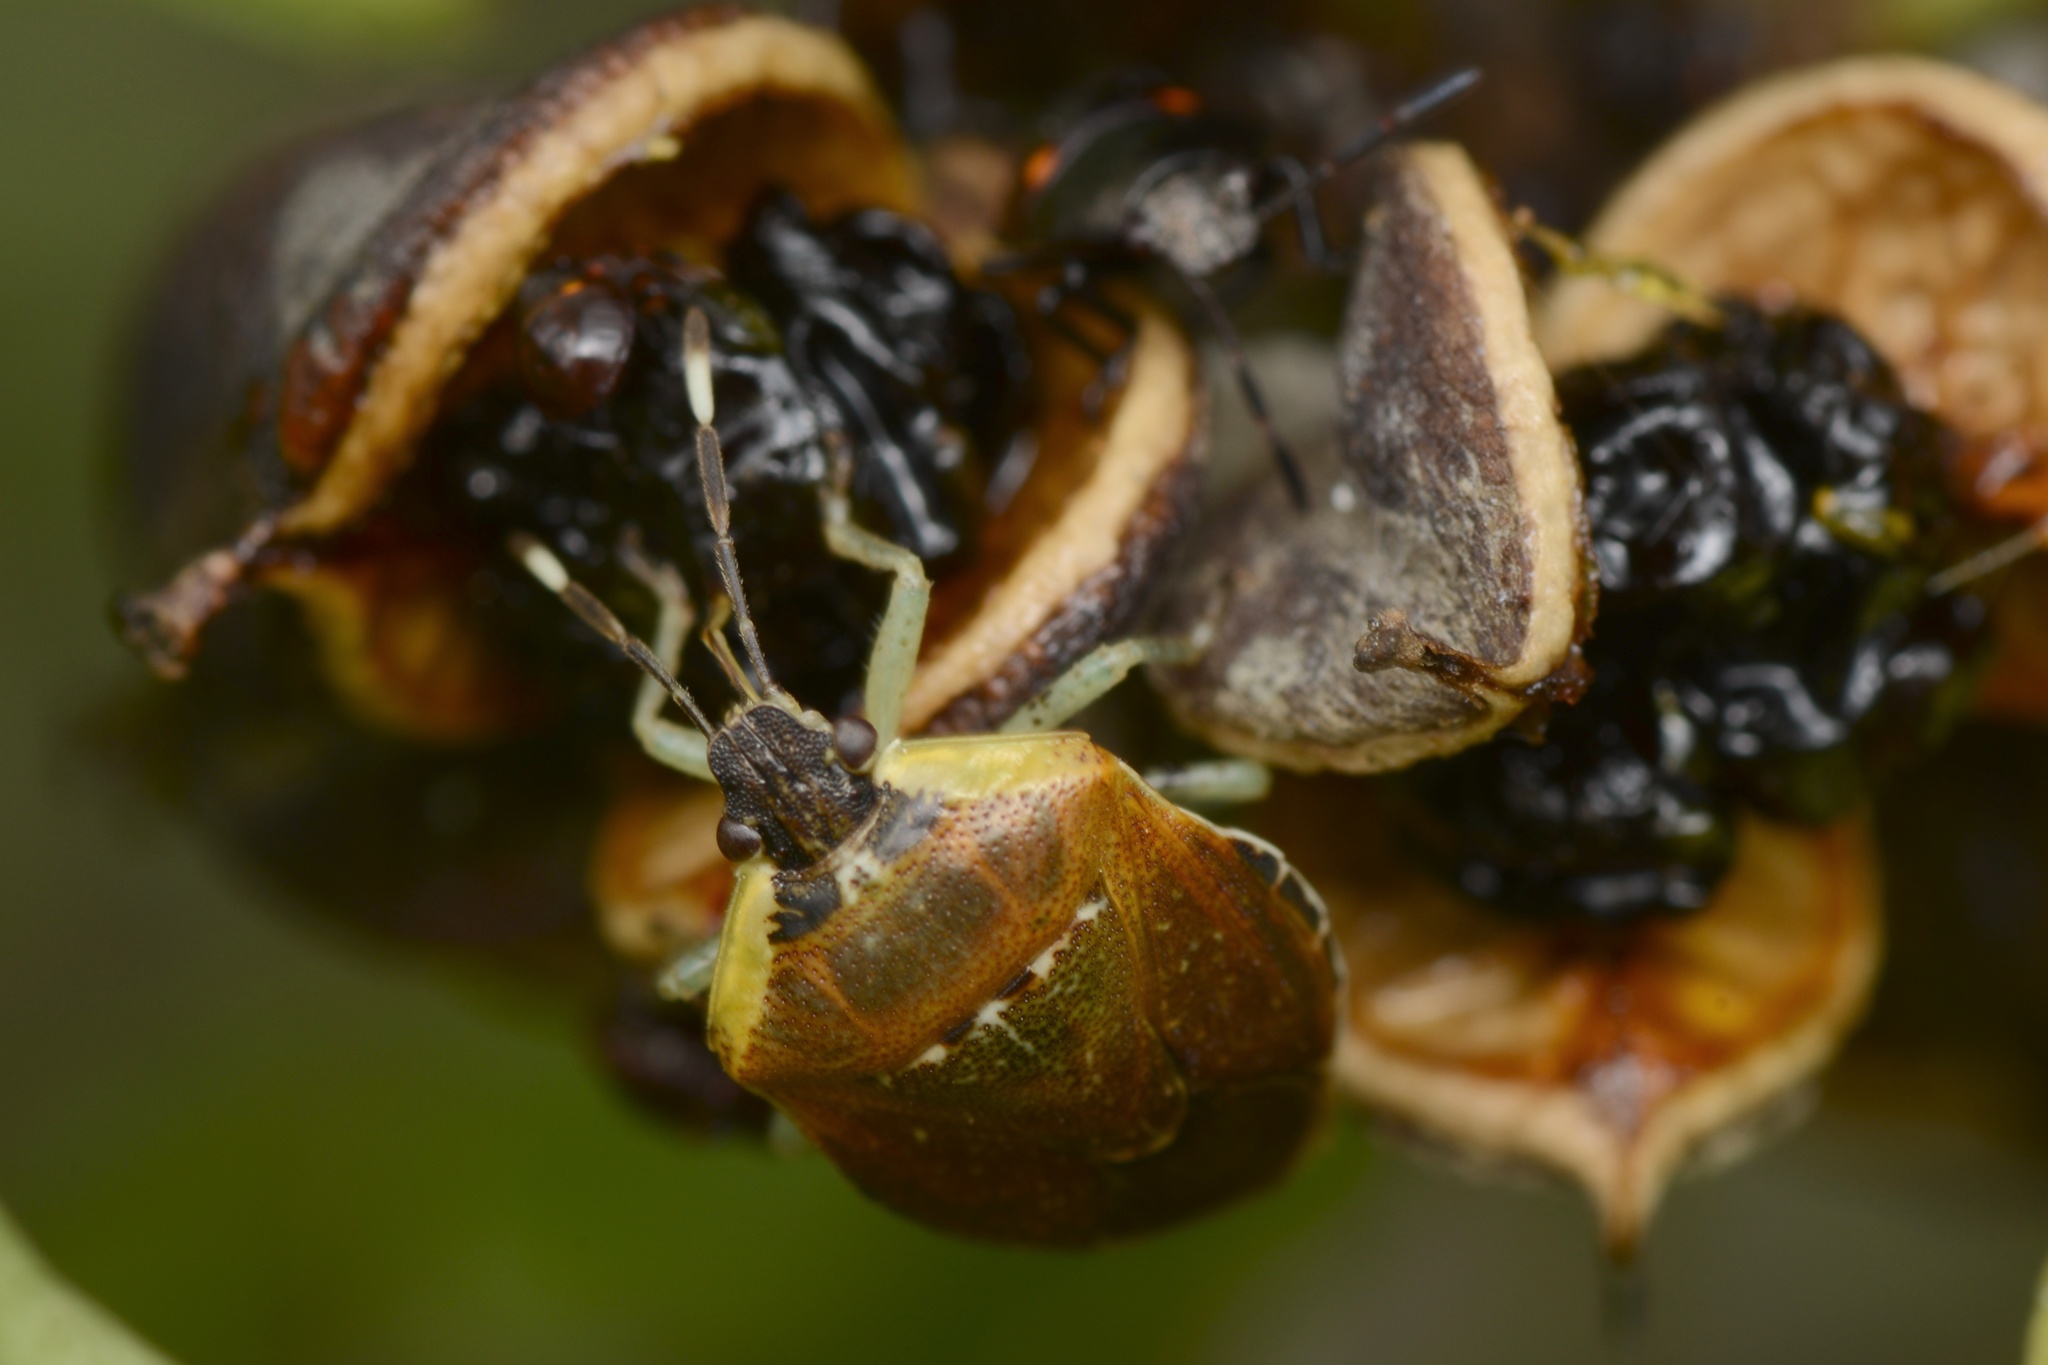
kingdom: Animalia
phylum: Arthropoda
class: Insecta
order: Hemiptera
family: Pentatomidae
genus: Monteithiella
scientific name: Monteithiella
